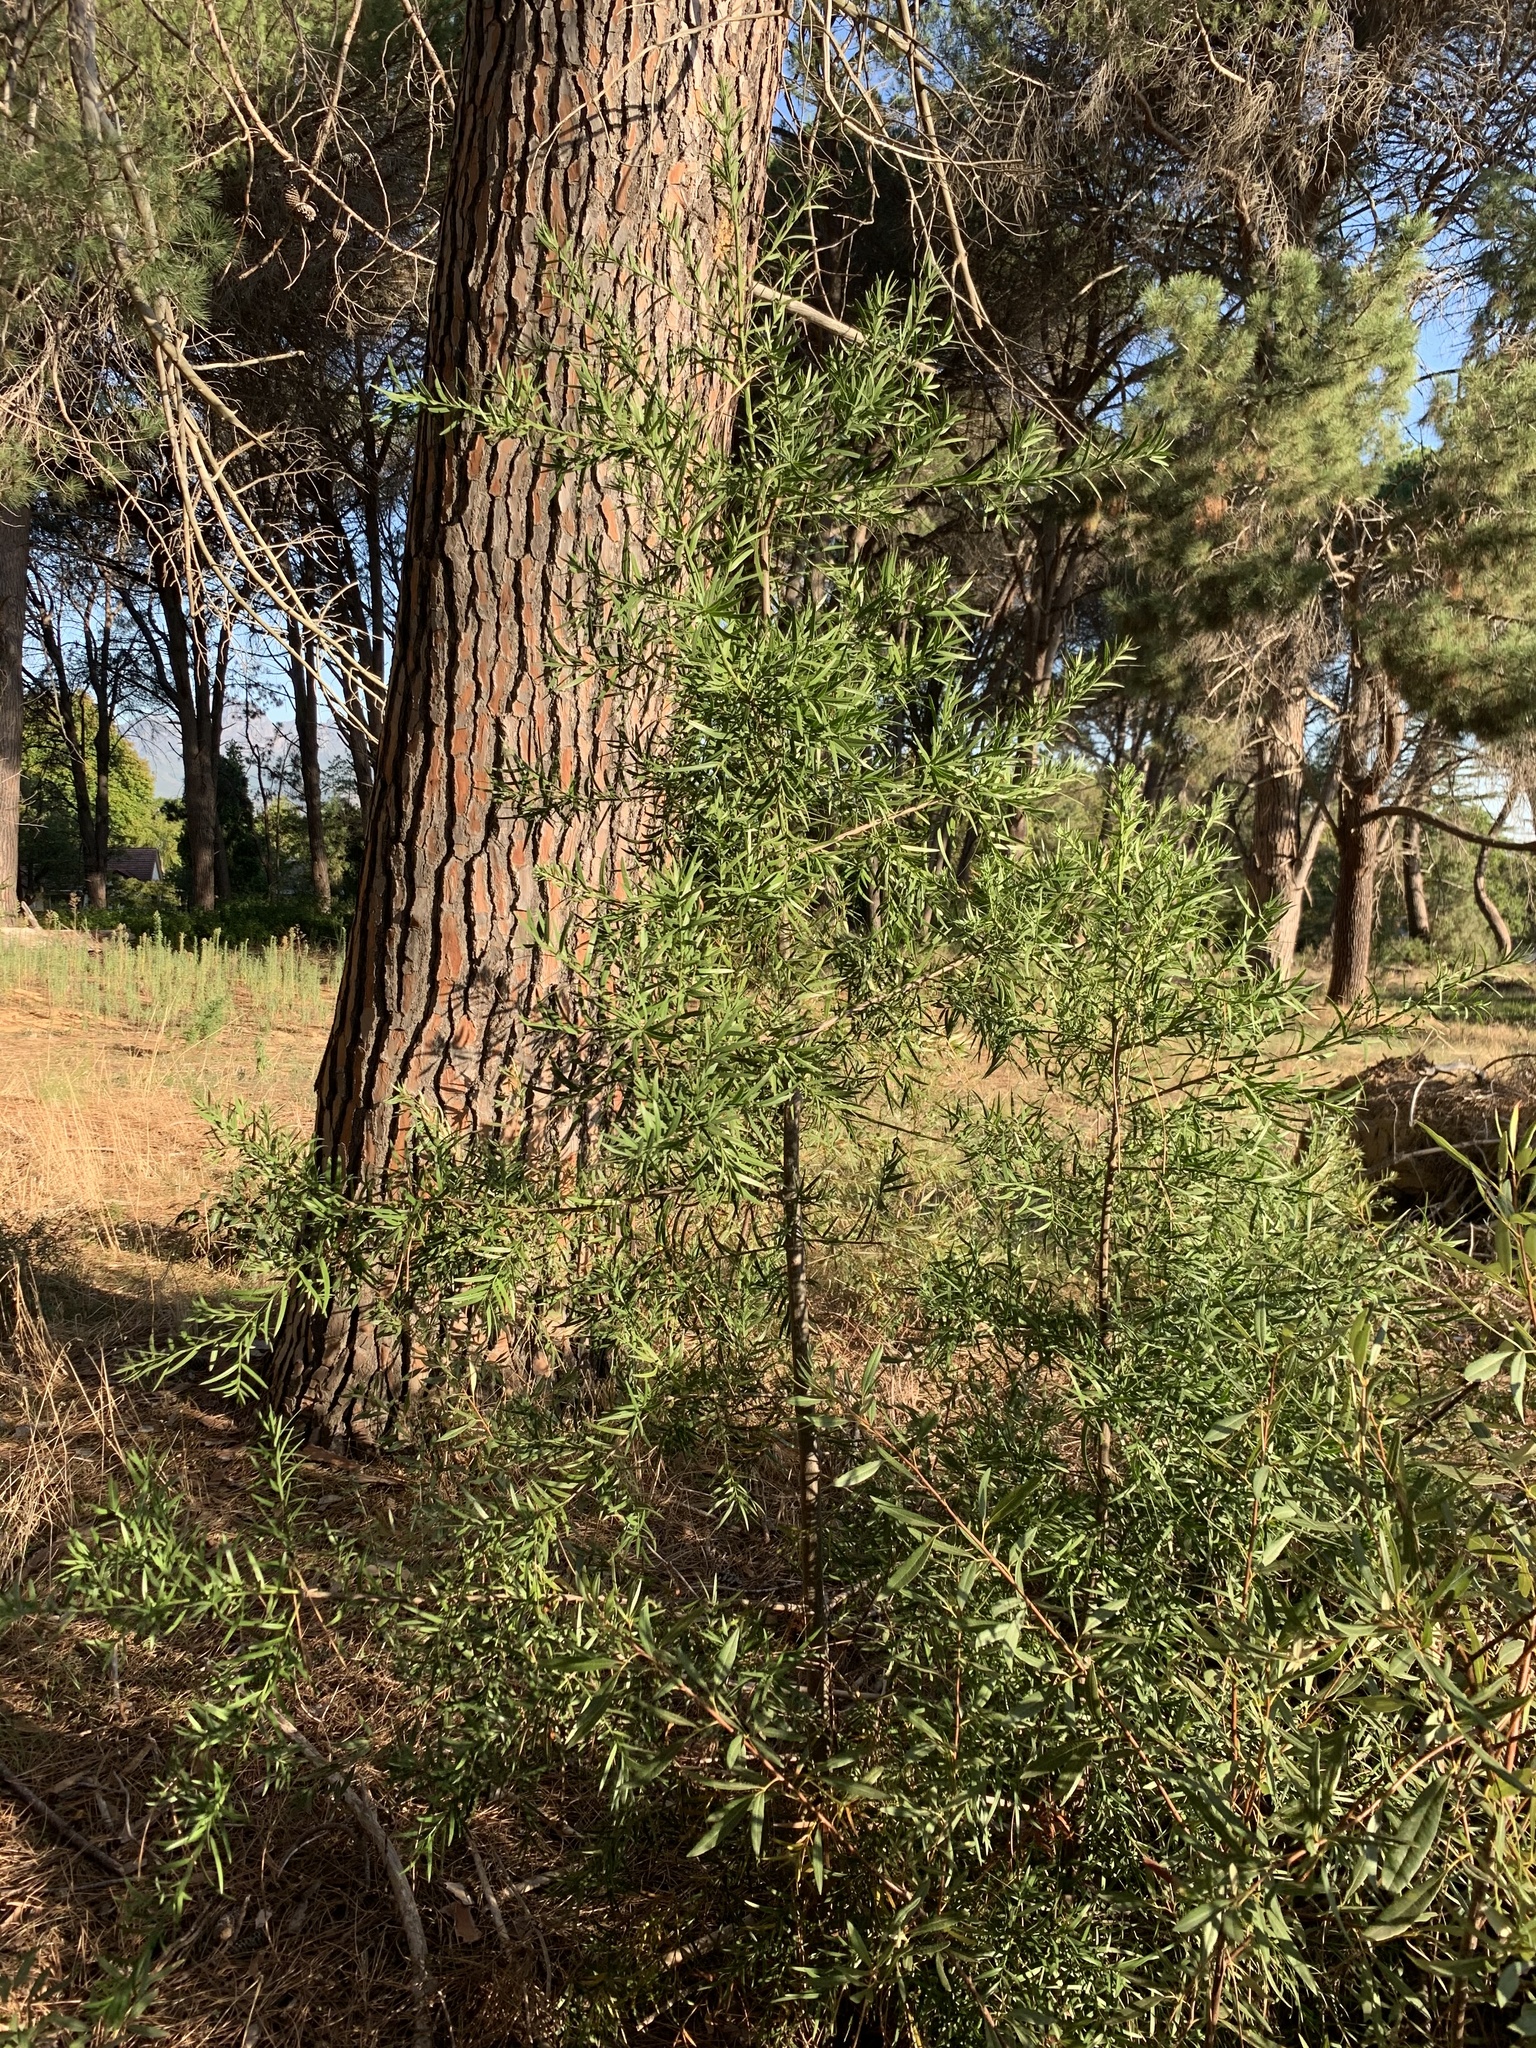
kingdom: Plantae
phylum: Tracheophyta
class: Pinopsida
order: Pinales
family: Podocarpaceae
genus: Afrocarpus
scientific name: Afrocarpus falcatus
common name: Bastard yellowwood
